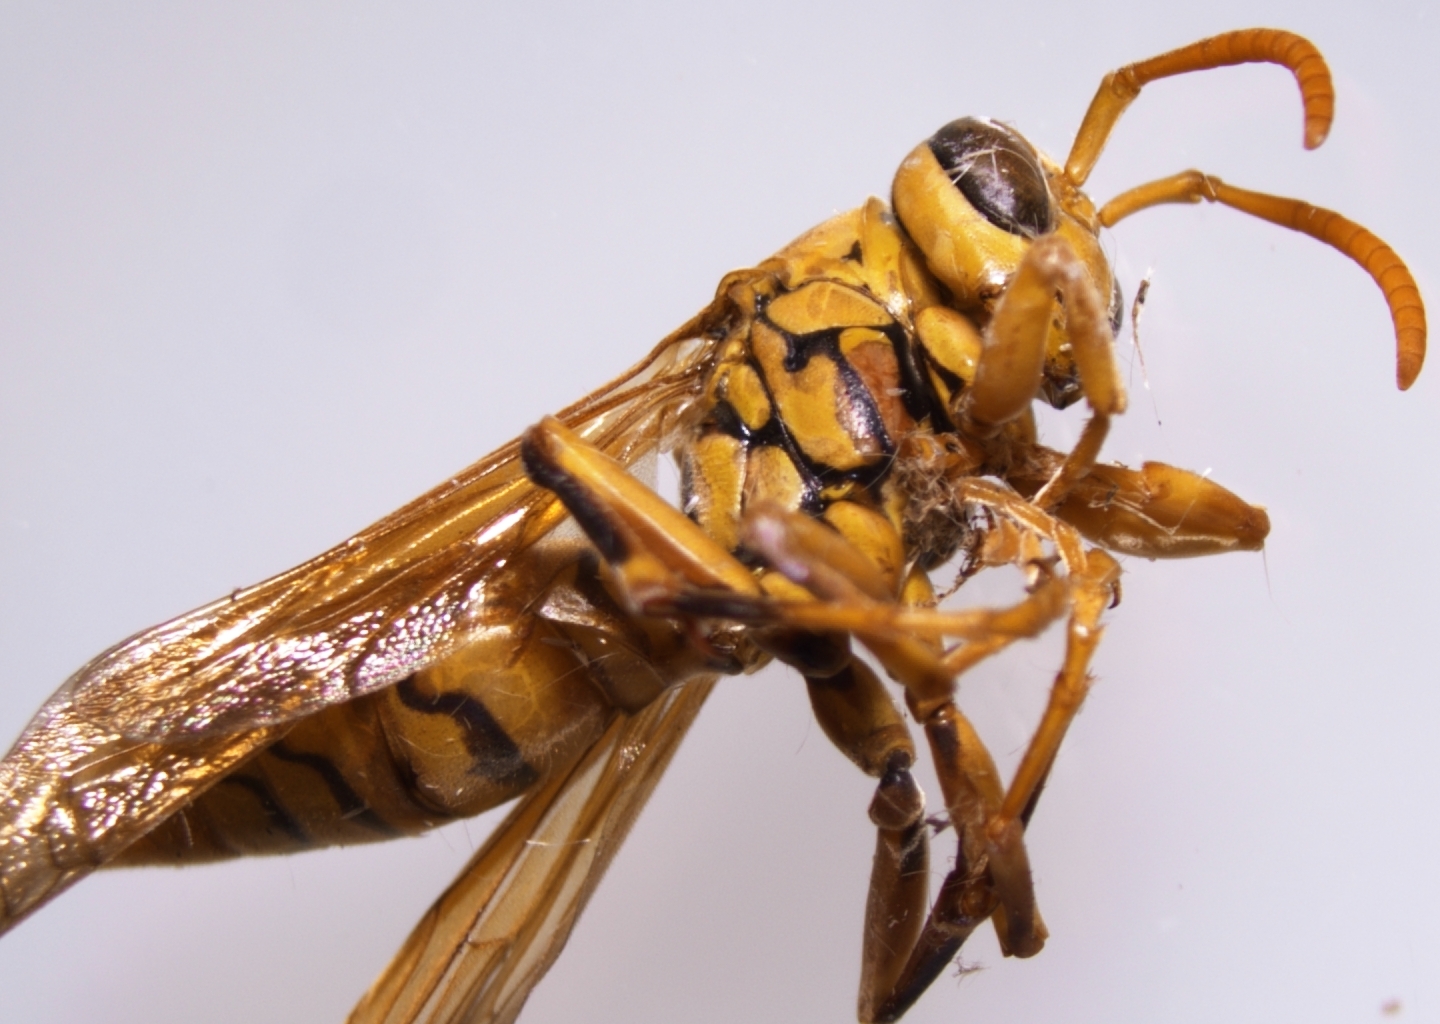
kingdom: Animalia
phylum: Arthropoda
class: Insecta
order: Hymenoptera
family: Eumenidae
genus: Polistes
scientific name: Polistes olivaceus
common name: Paper wasp
